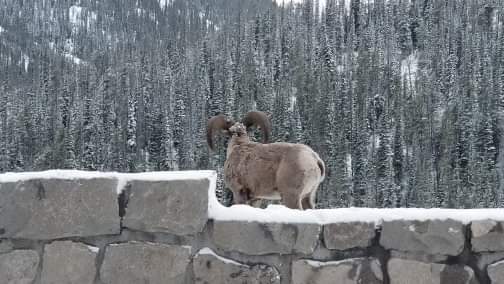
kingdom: Animalia
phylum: Chordata
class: Mammalia
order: Artiodactyla
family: Bovidae
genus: Ovis
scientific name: Ovis canadensis
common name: Bighorn sheep
